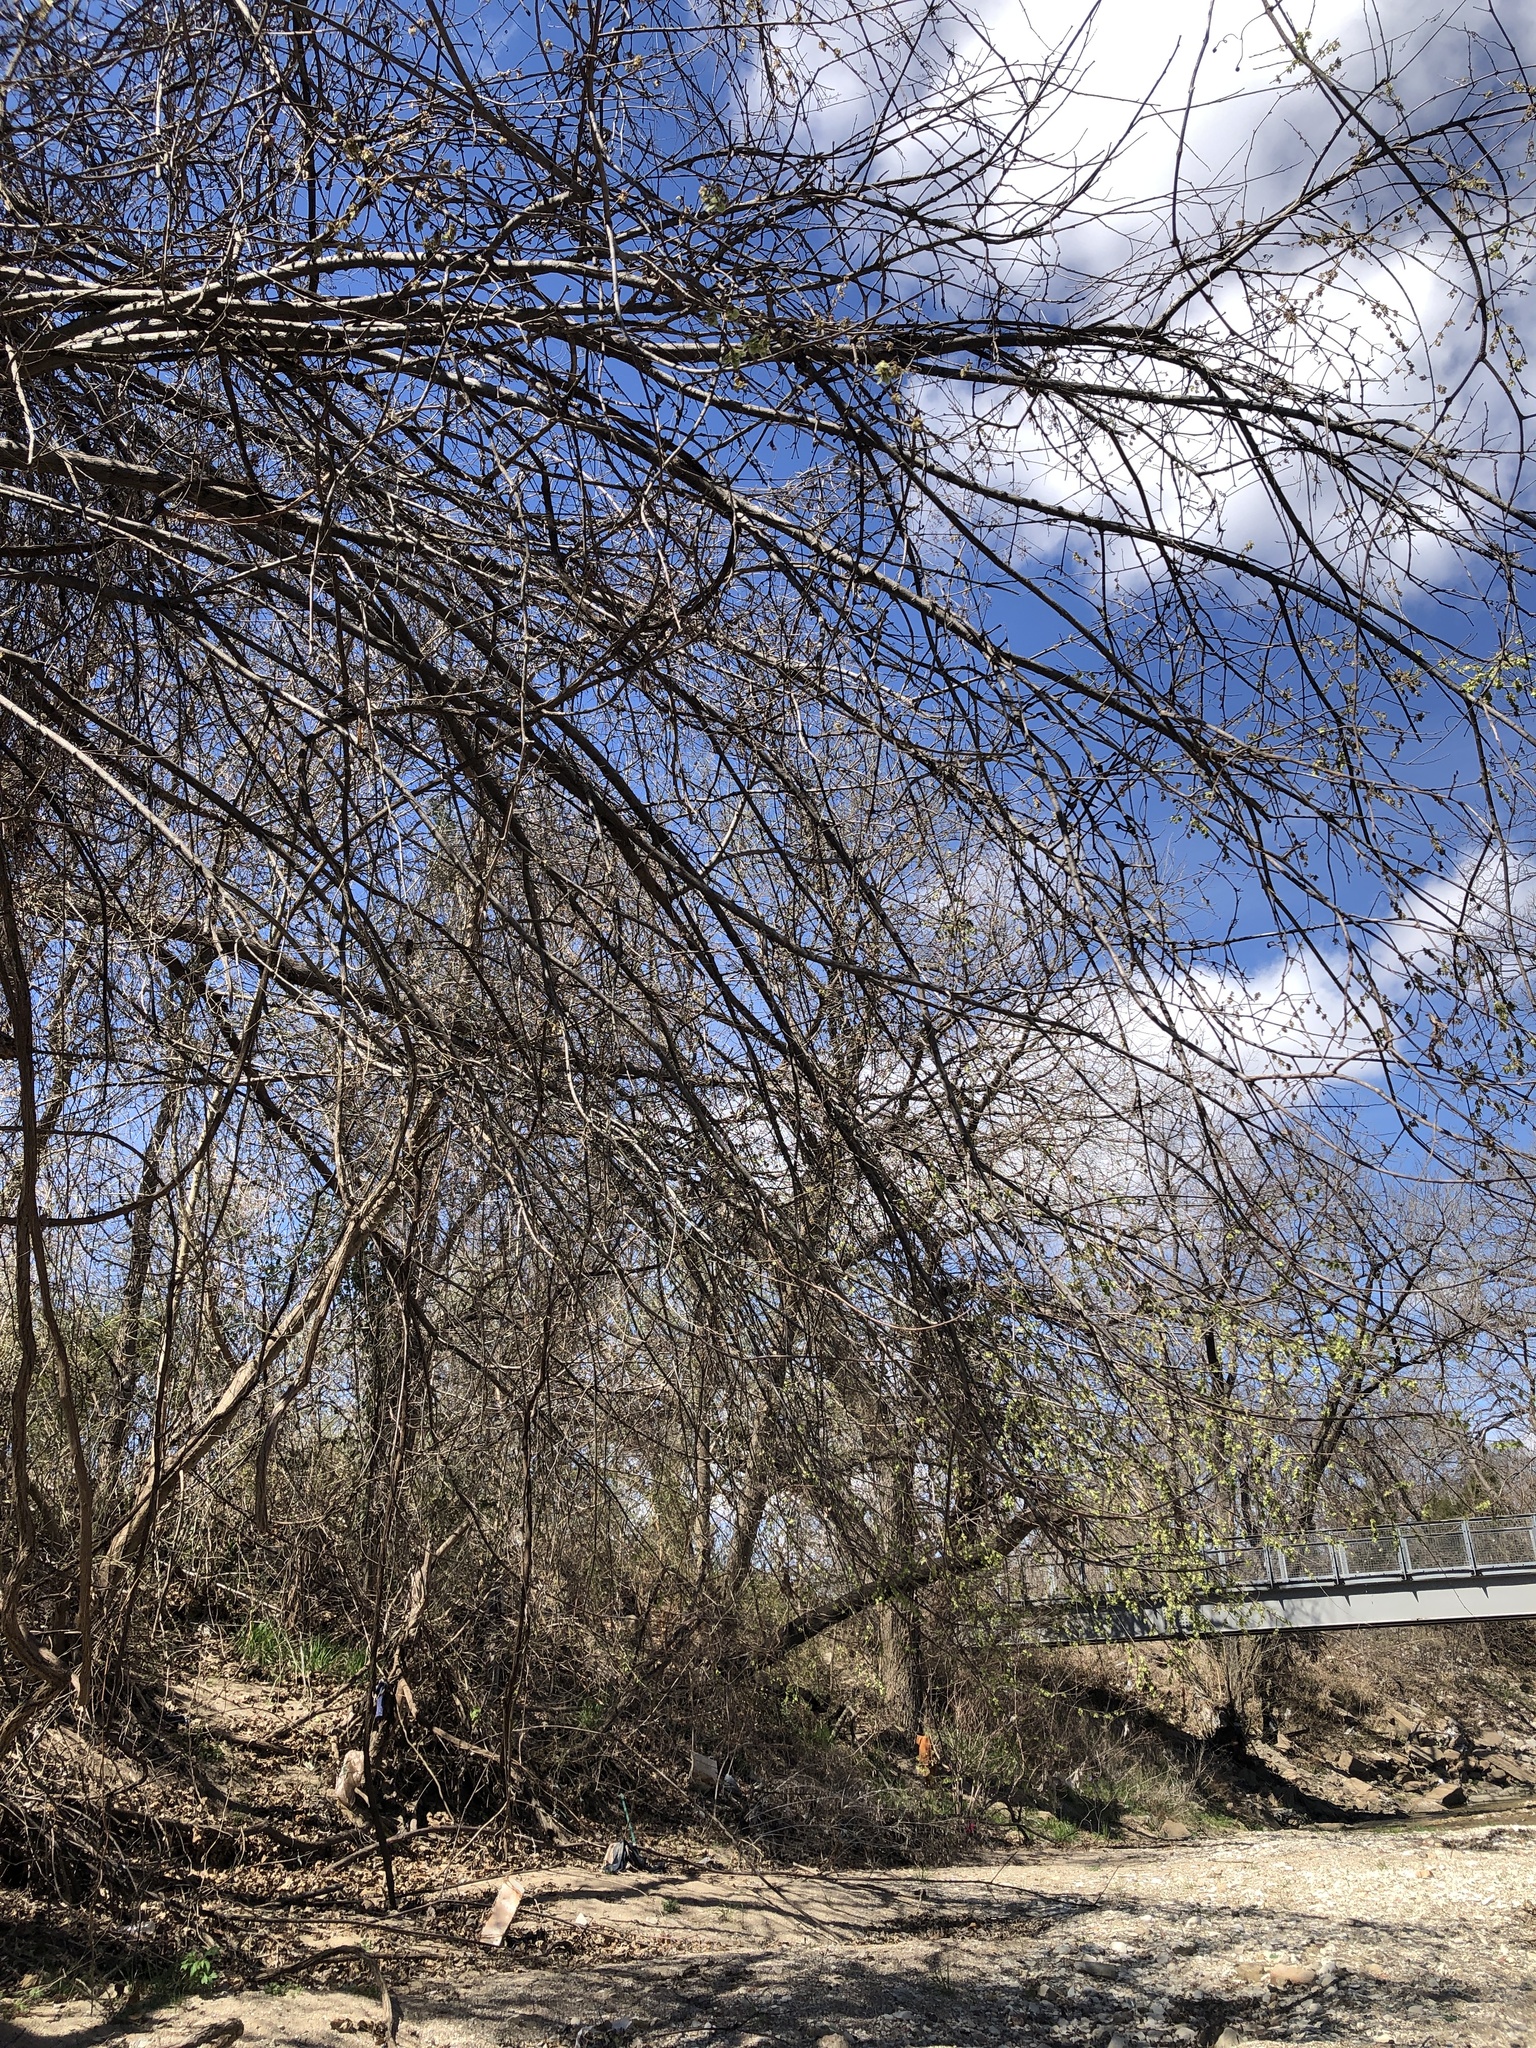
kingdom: Plantae
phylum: Tracheophyta
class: Magnoliopsida
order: Rosales
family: Ulmaceae
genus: Ulmus
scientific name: Ulmus americana
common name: American elm
